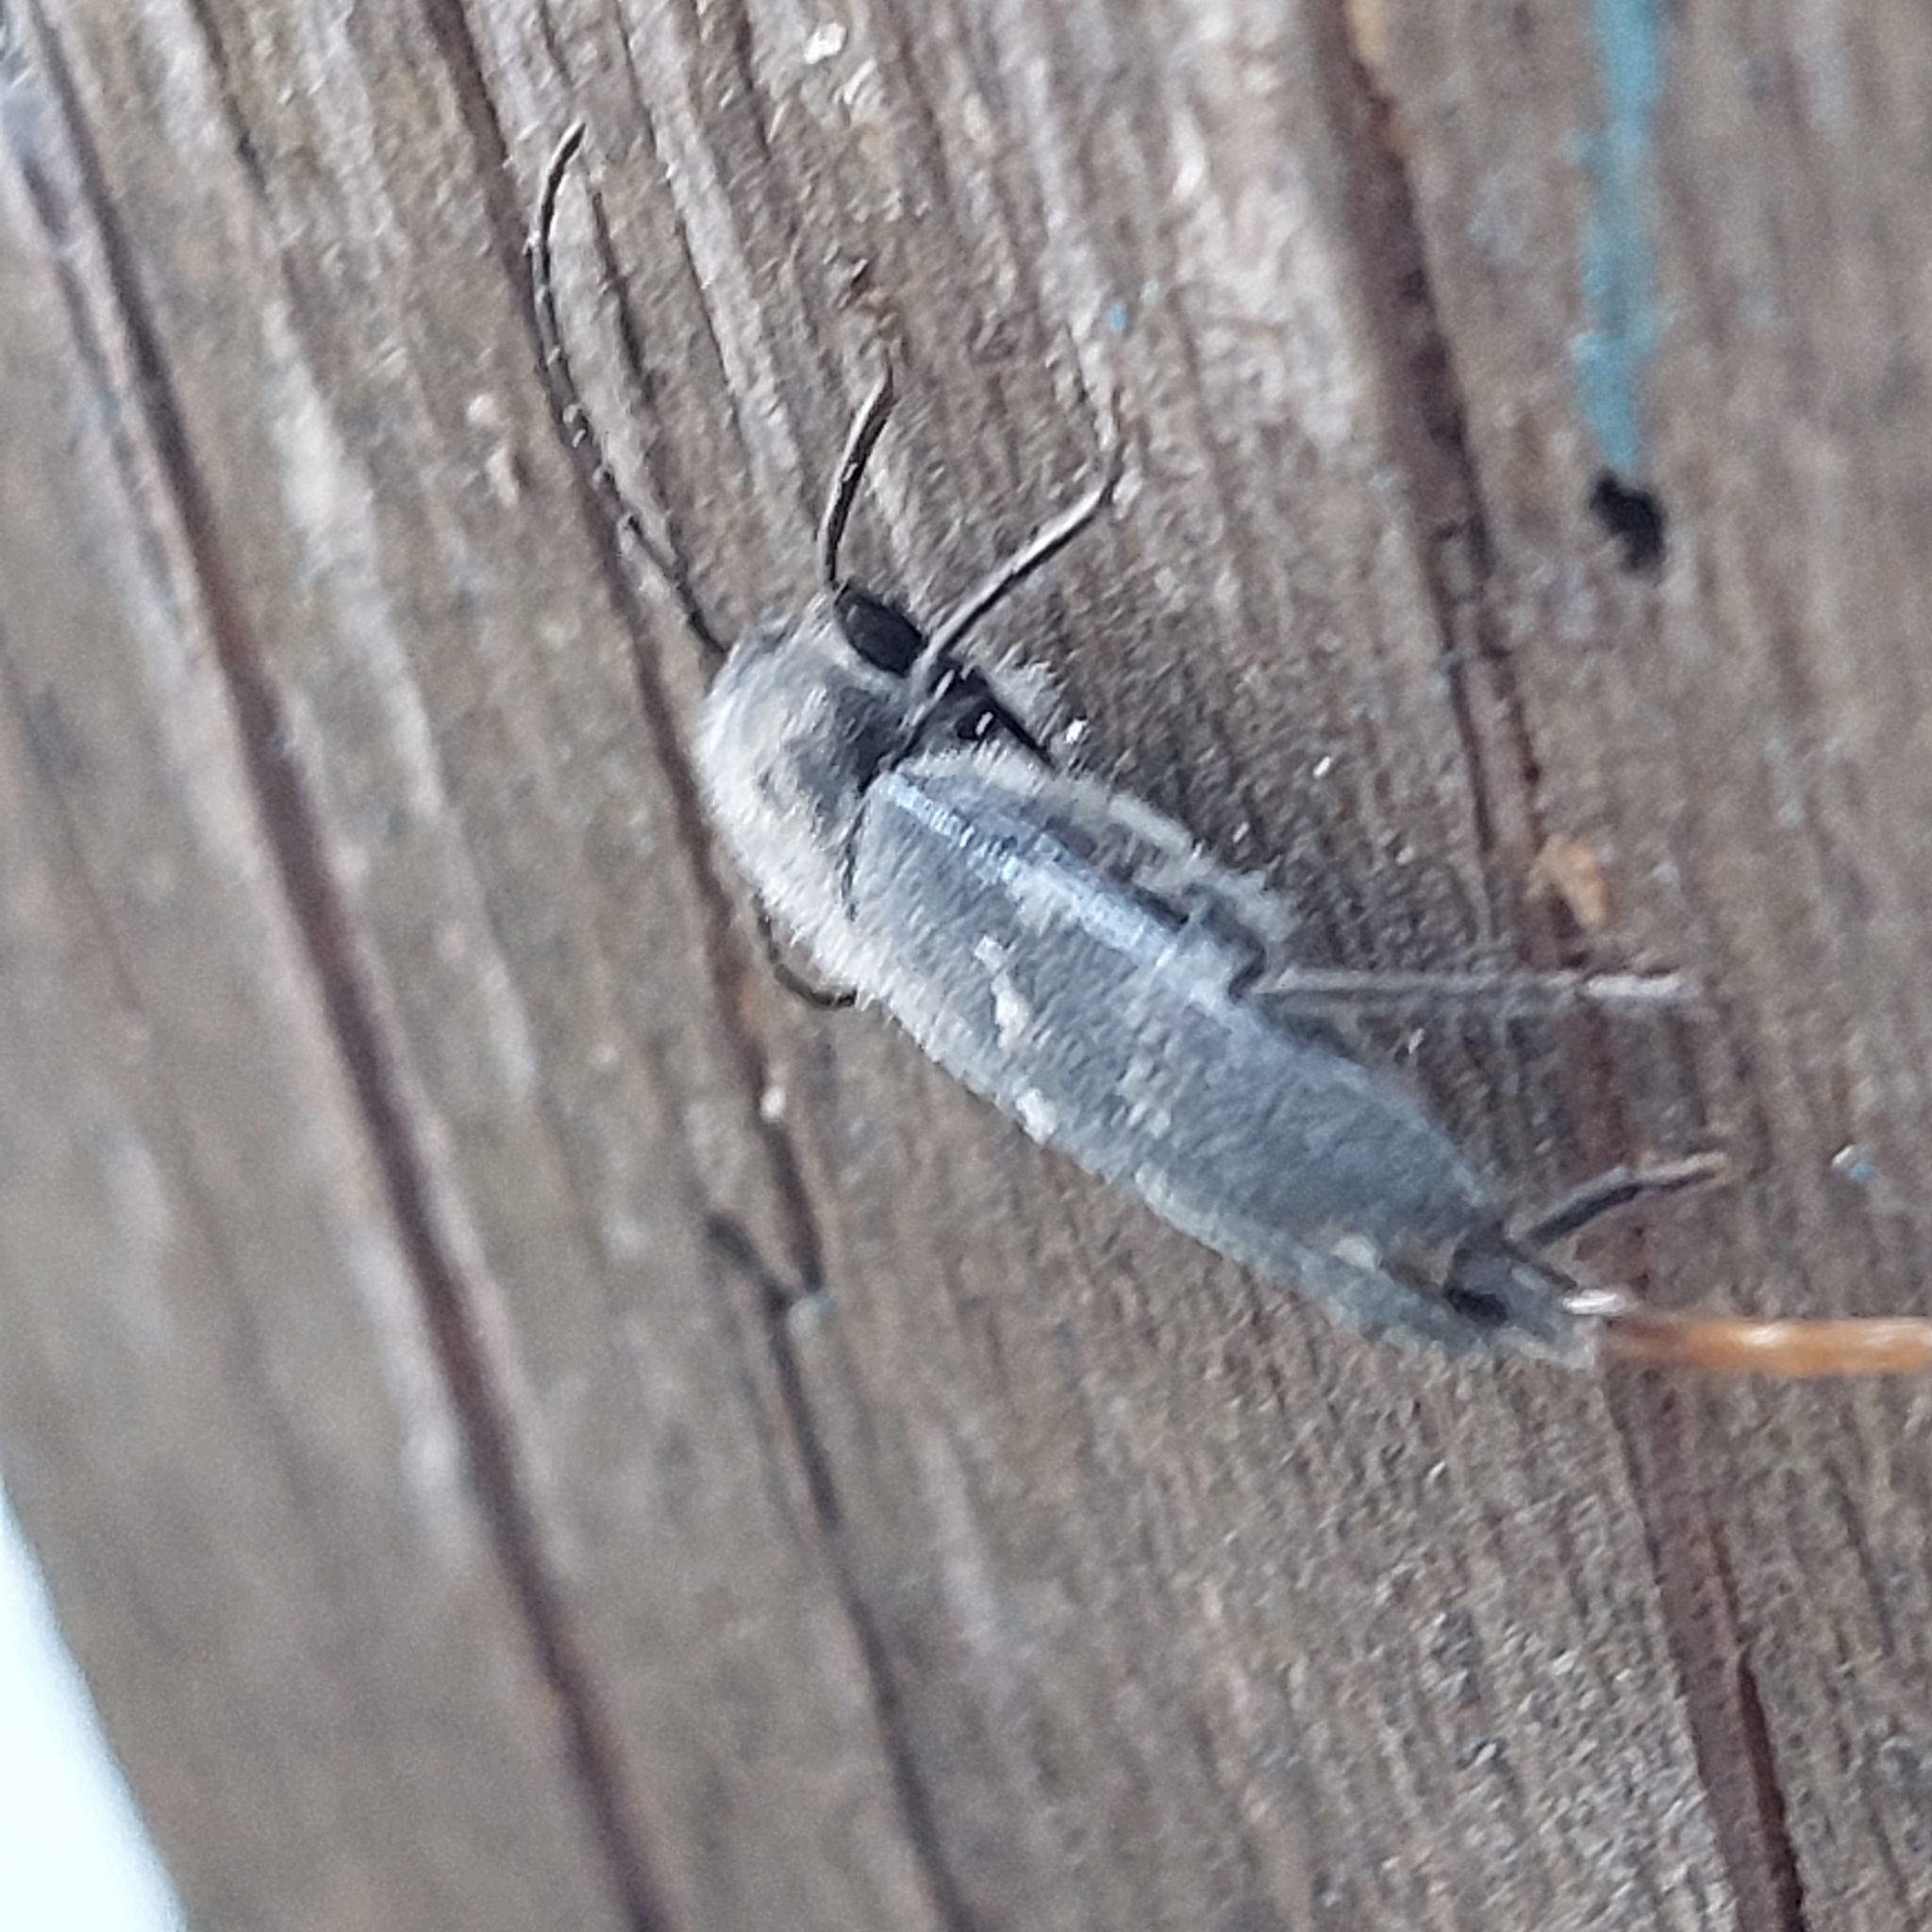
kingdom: Animalia
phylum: Arthropoda
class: Insecta
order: Coleoptera
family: Cerambycidae
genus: Hylotrupes
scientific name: Hylotrupes bajulus
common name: Old house borer
